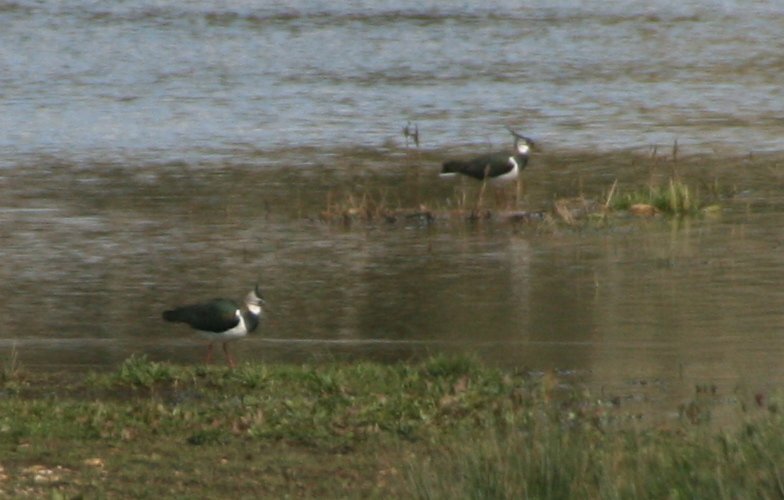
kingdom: Animalia
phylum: Chordata
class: Aves
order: Charadriiformes
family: Charadriidae
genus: Vanellus
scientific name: Vanellus vanellus
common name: Northern lapwing
